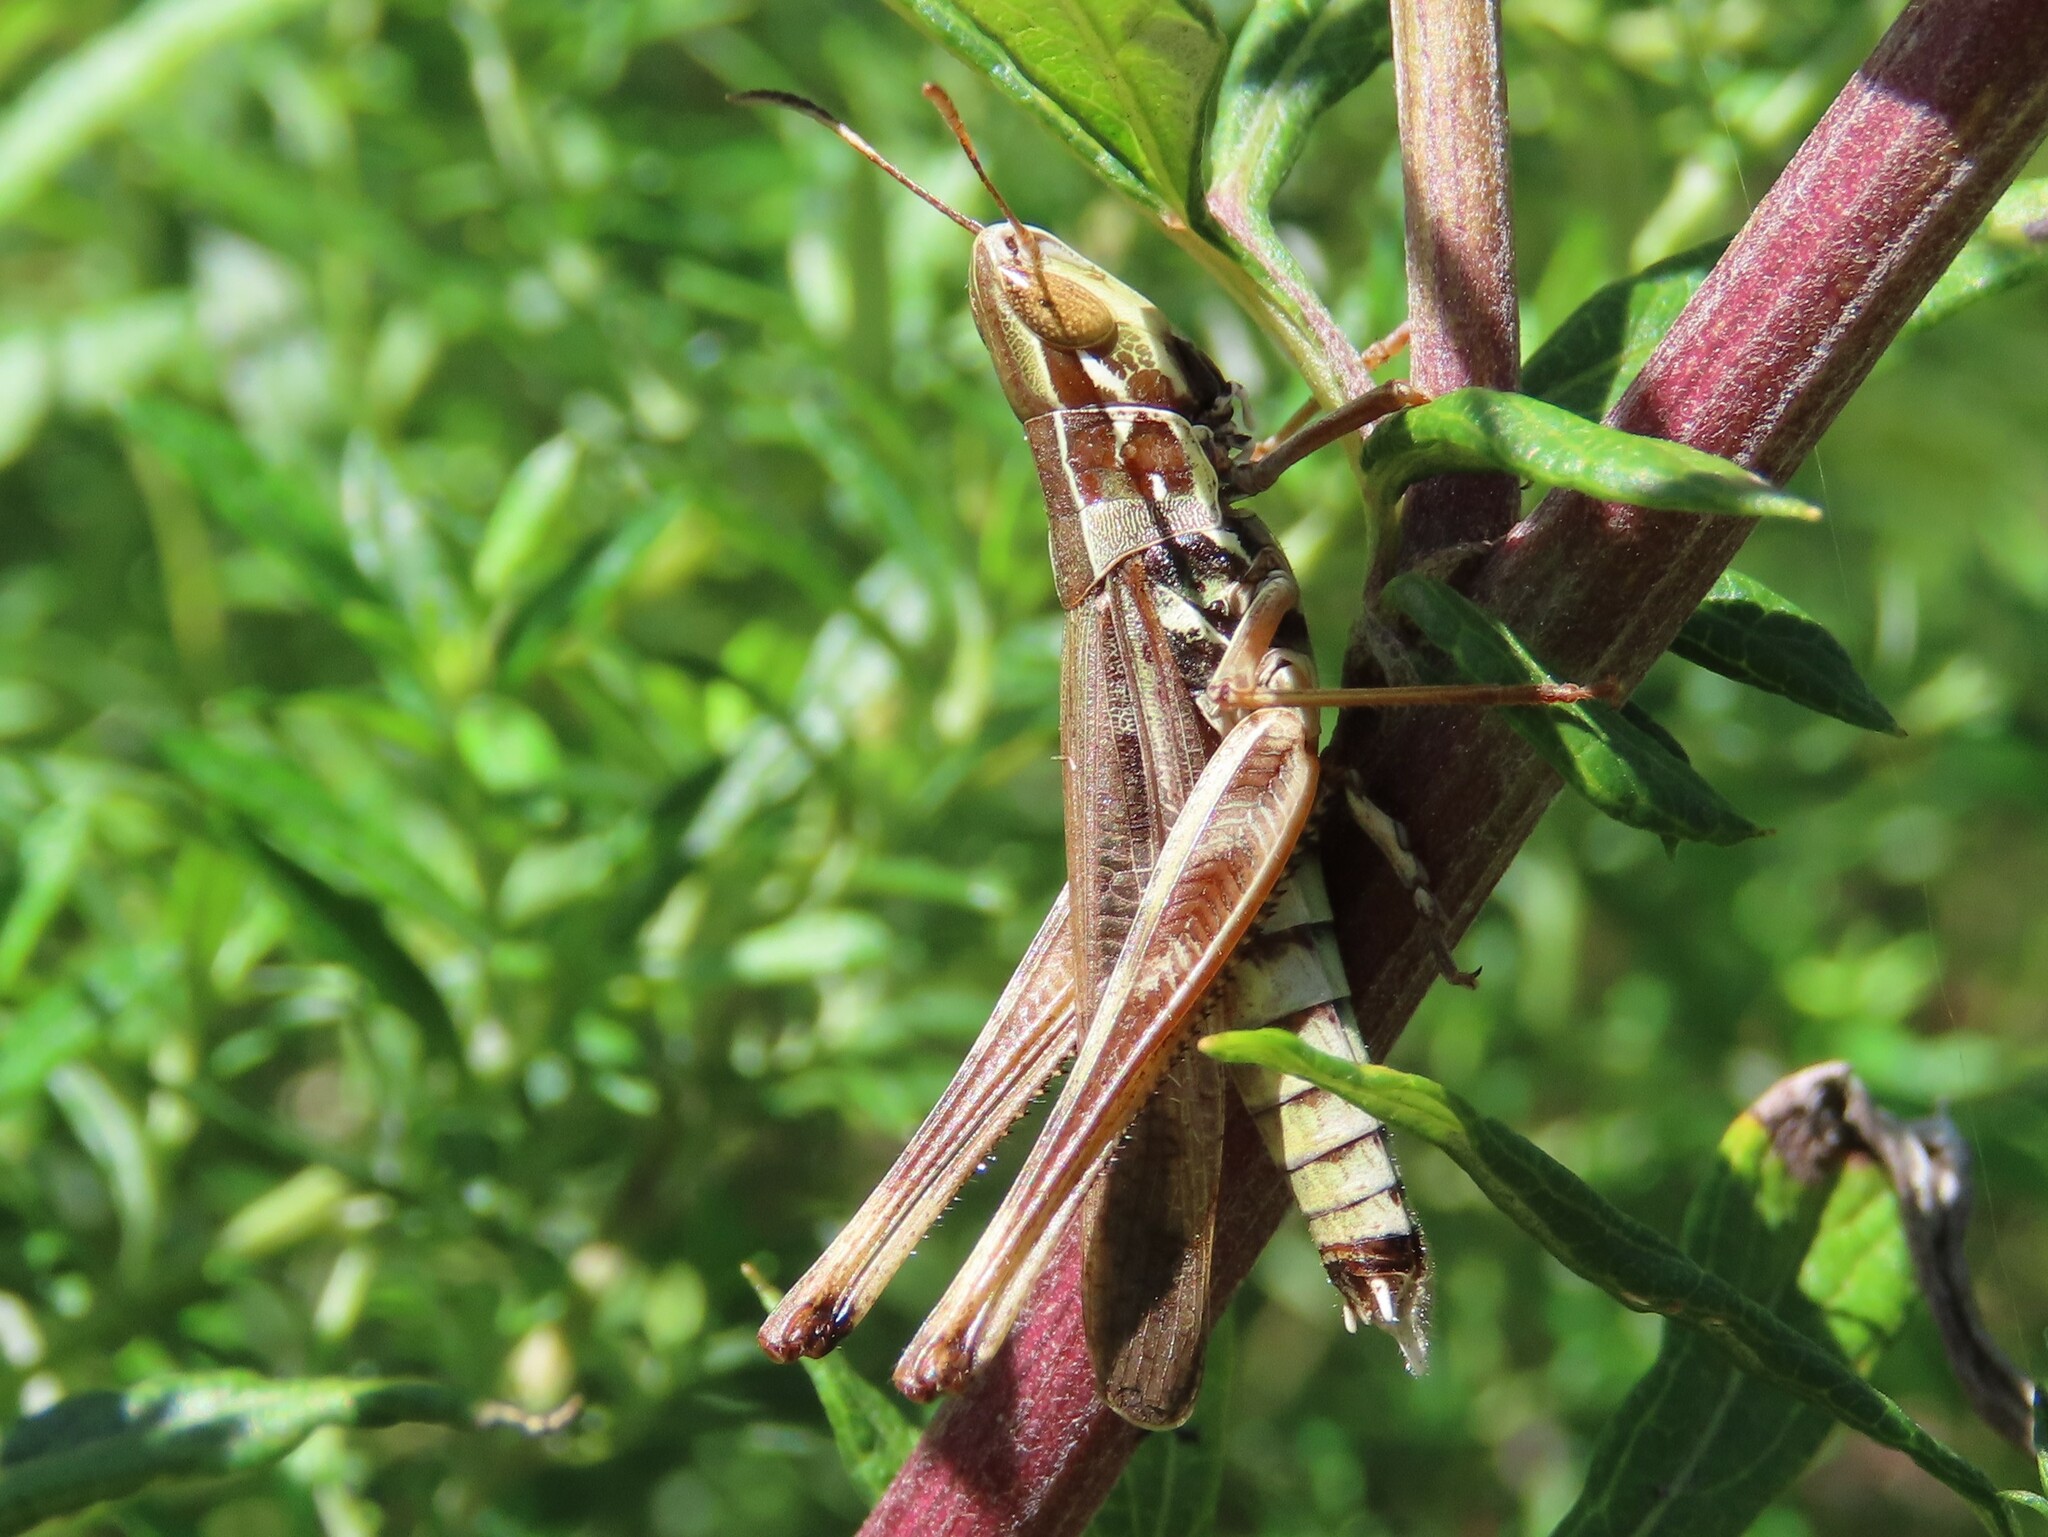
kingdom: Animalia
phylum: Arthropoda
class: Insecta
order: Orthoptera
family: Acrididae
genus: Syrbula
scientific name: Syrbula admirabilis
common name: Handsome grasshopper
